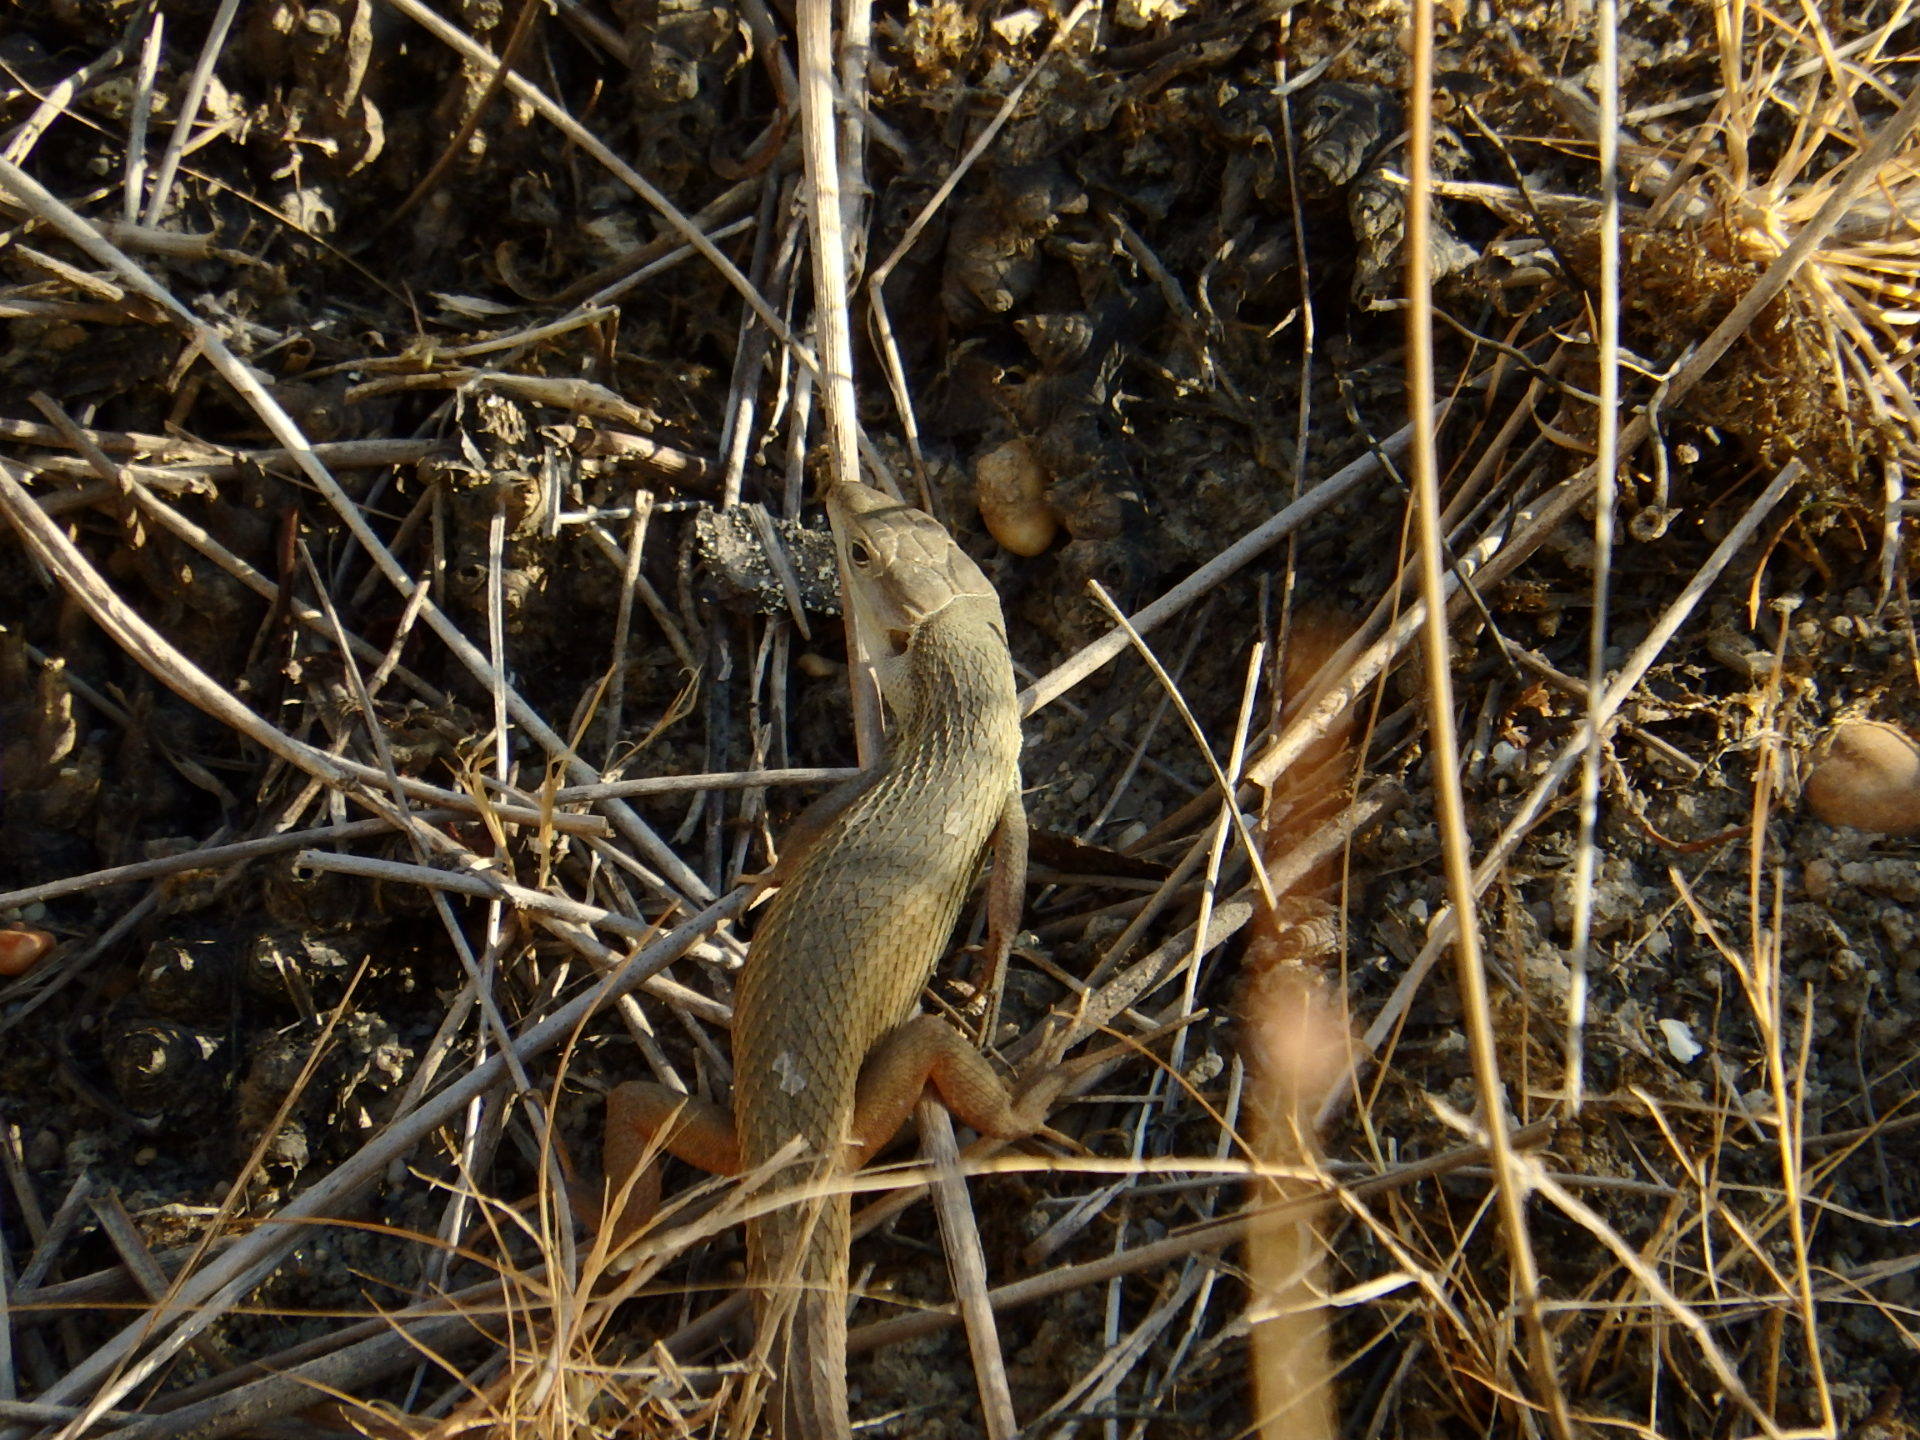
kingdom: Animalia
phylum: Chordata
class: Squamata
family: Lacertidae
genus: Psammodromus
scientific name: Psammodromus algirus
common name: Algerian psammodromus
